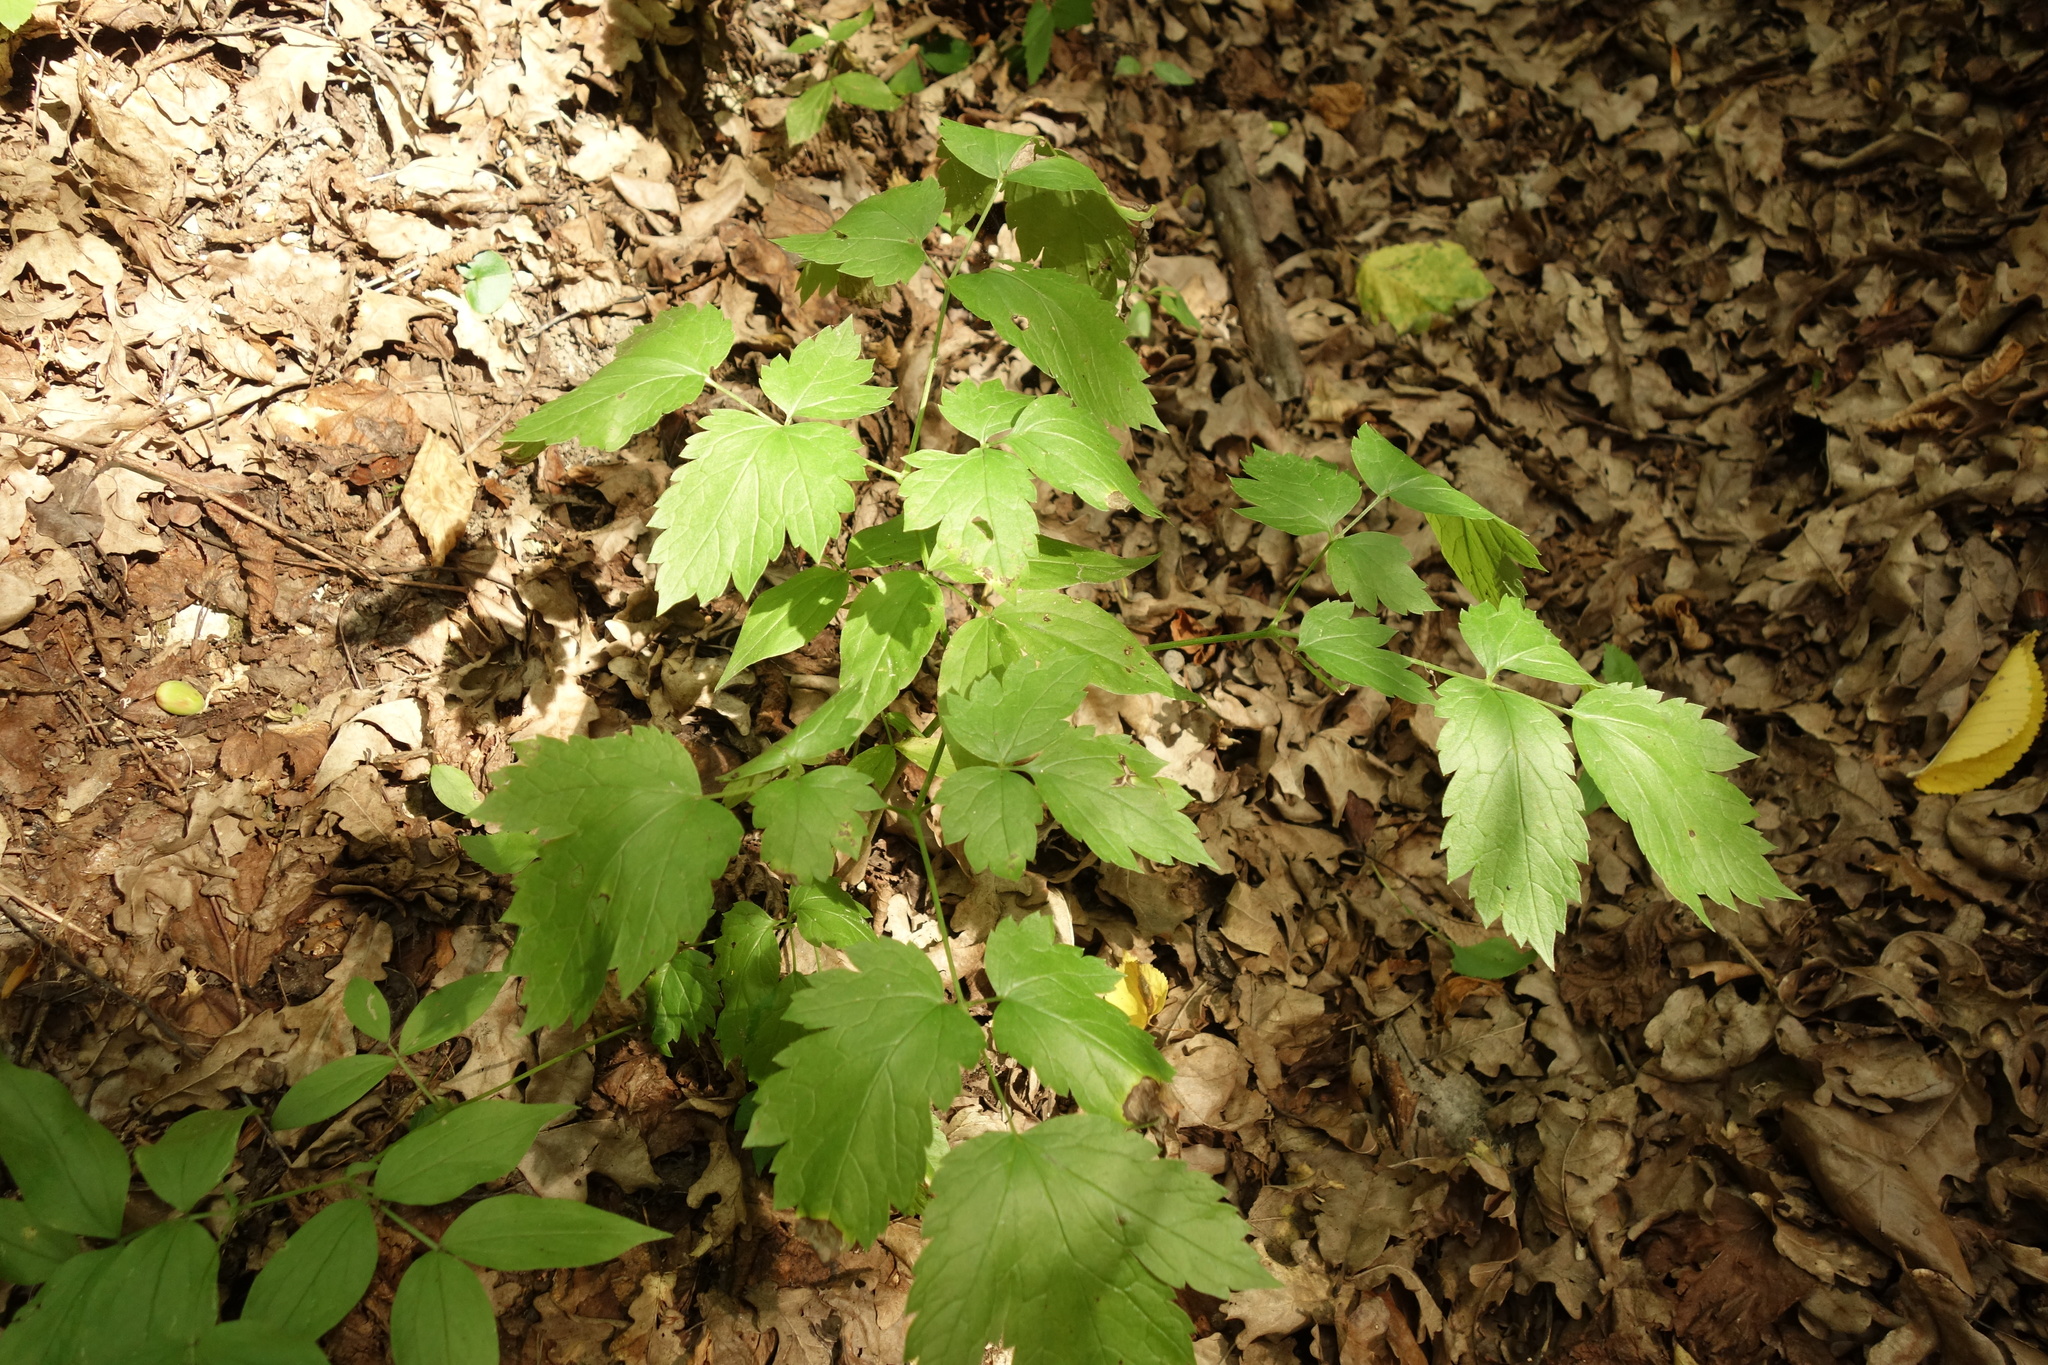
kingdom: Plantae
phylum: Tracheophyta
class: Magnoliopsida
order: Ranunculales
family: Ranunculaceae
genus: Actaea
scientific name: Actaea spicata
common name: Baneberry
